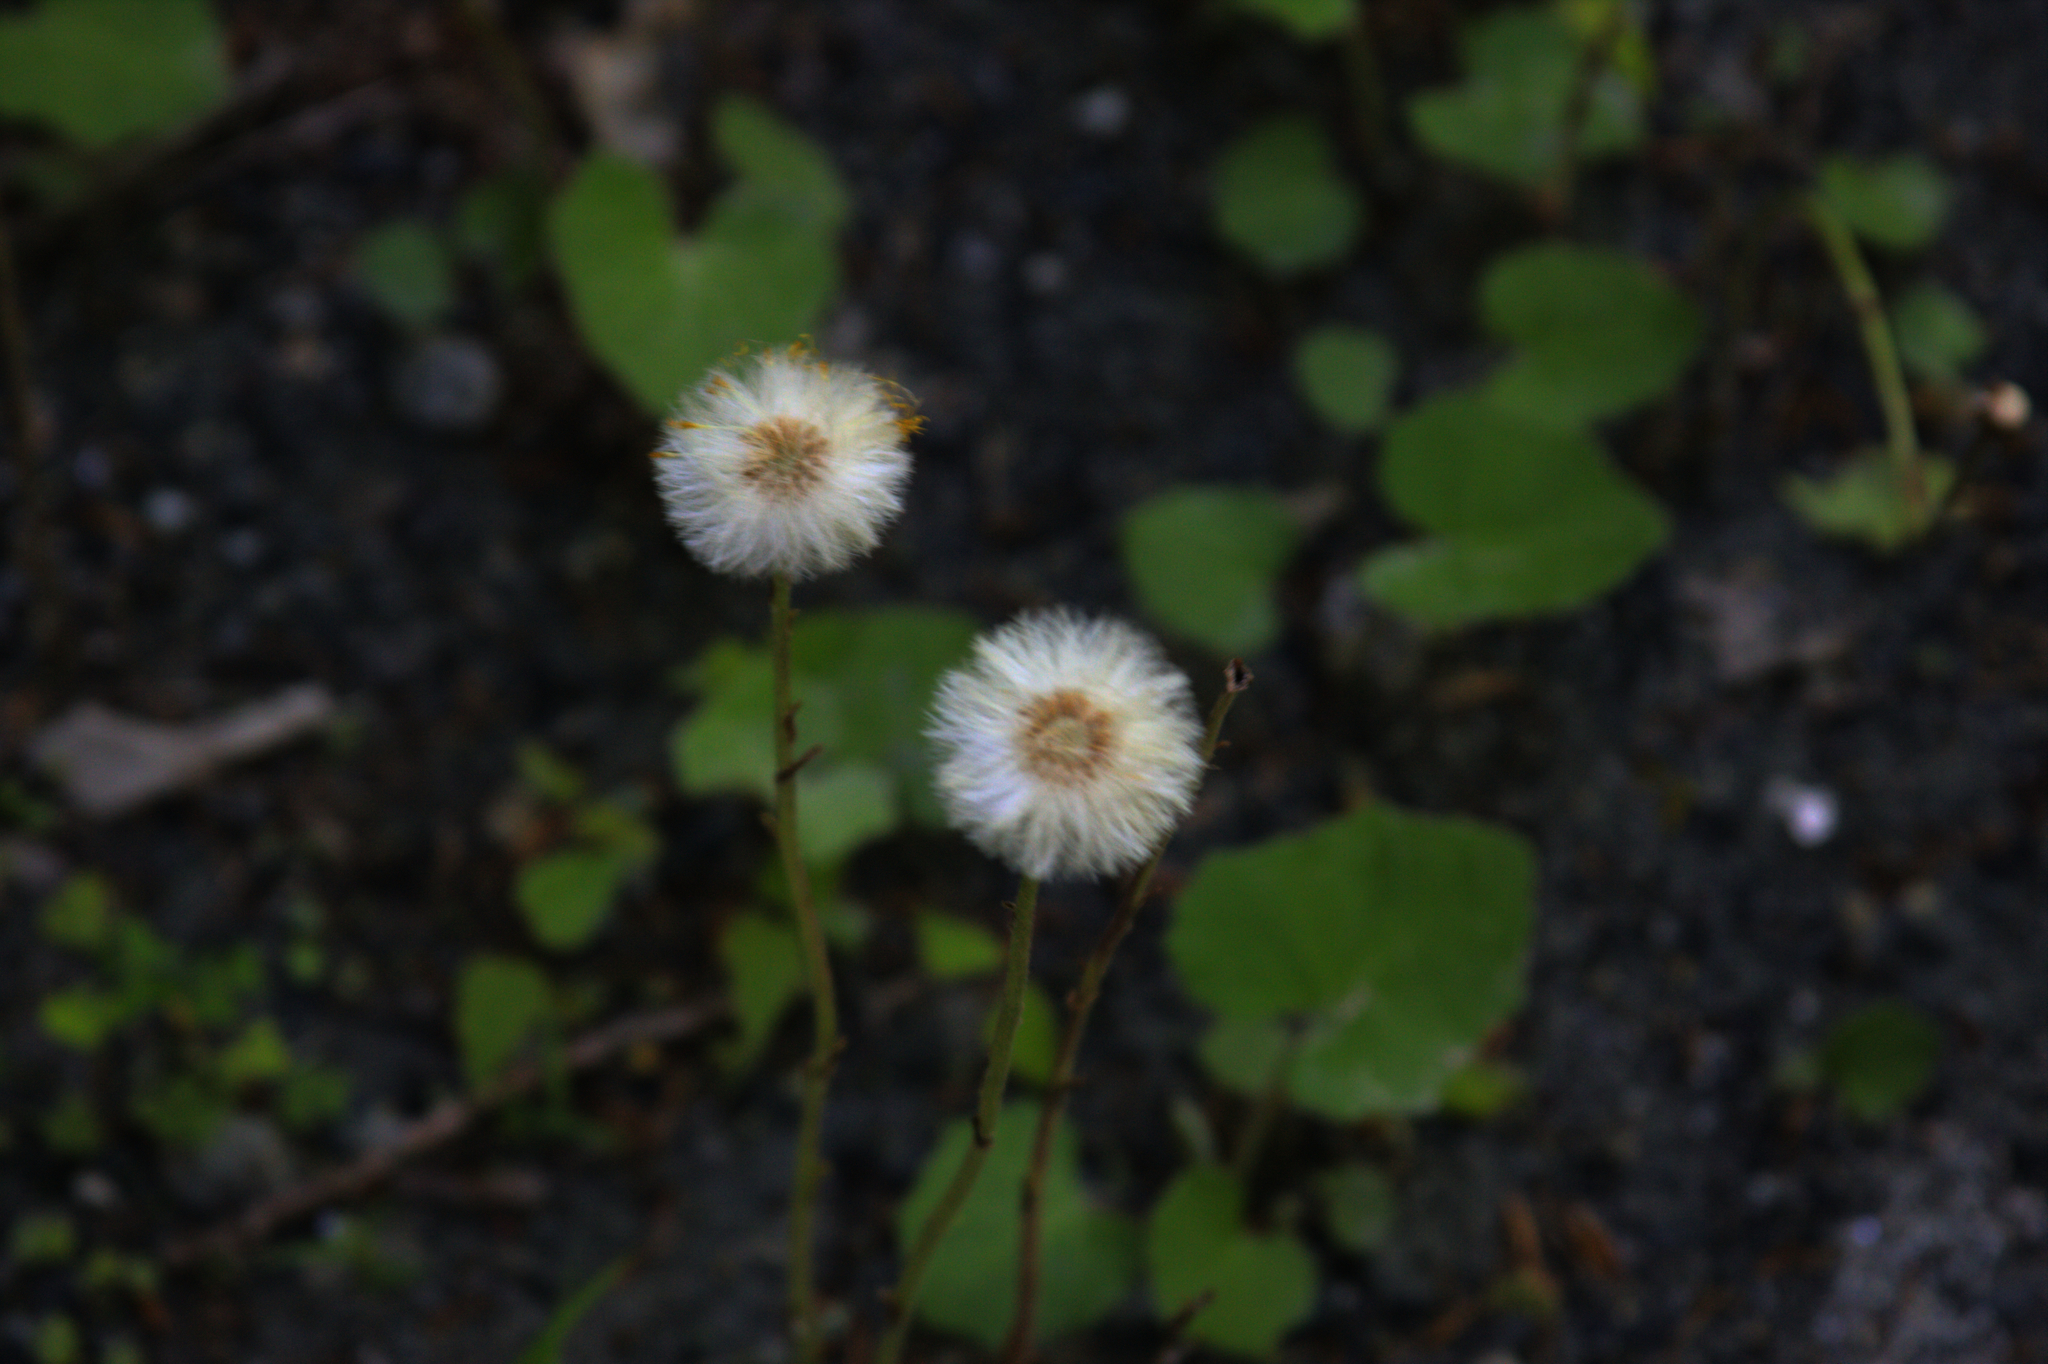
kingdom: Plantae
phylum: Tracheophyta
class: Magnoliopsida
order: Asterales
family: Asteraceae
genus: Tussilago
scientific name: Tussilago farfara
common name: Coltsfoot
